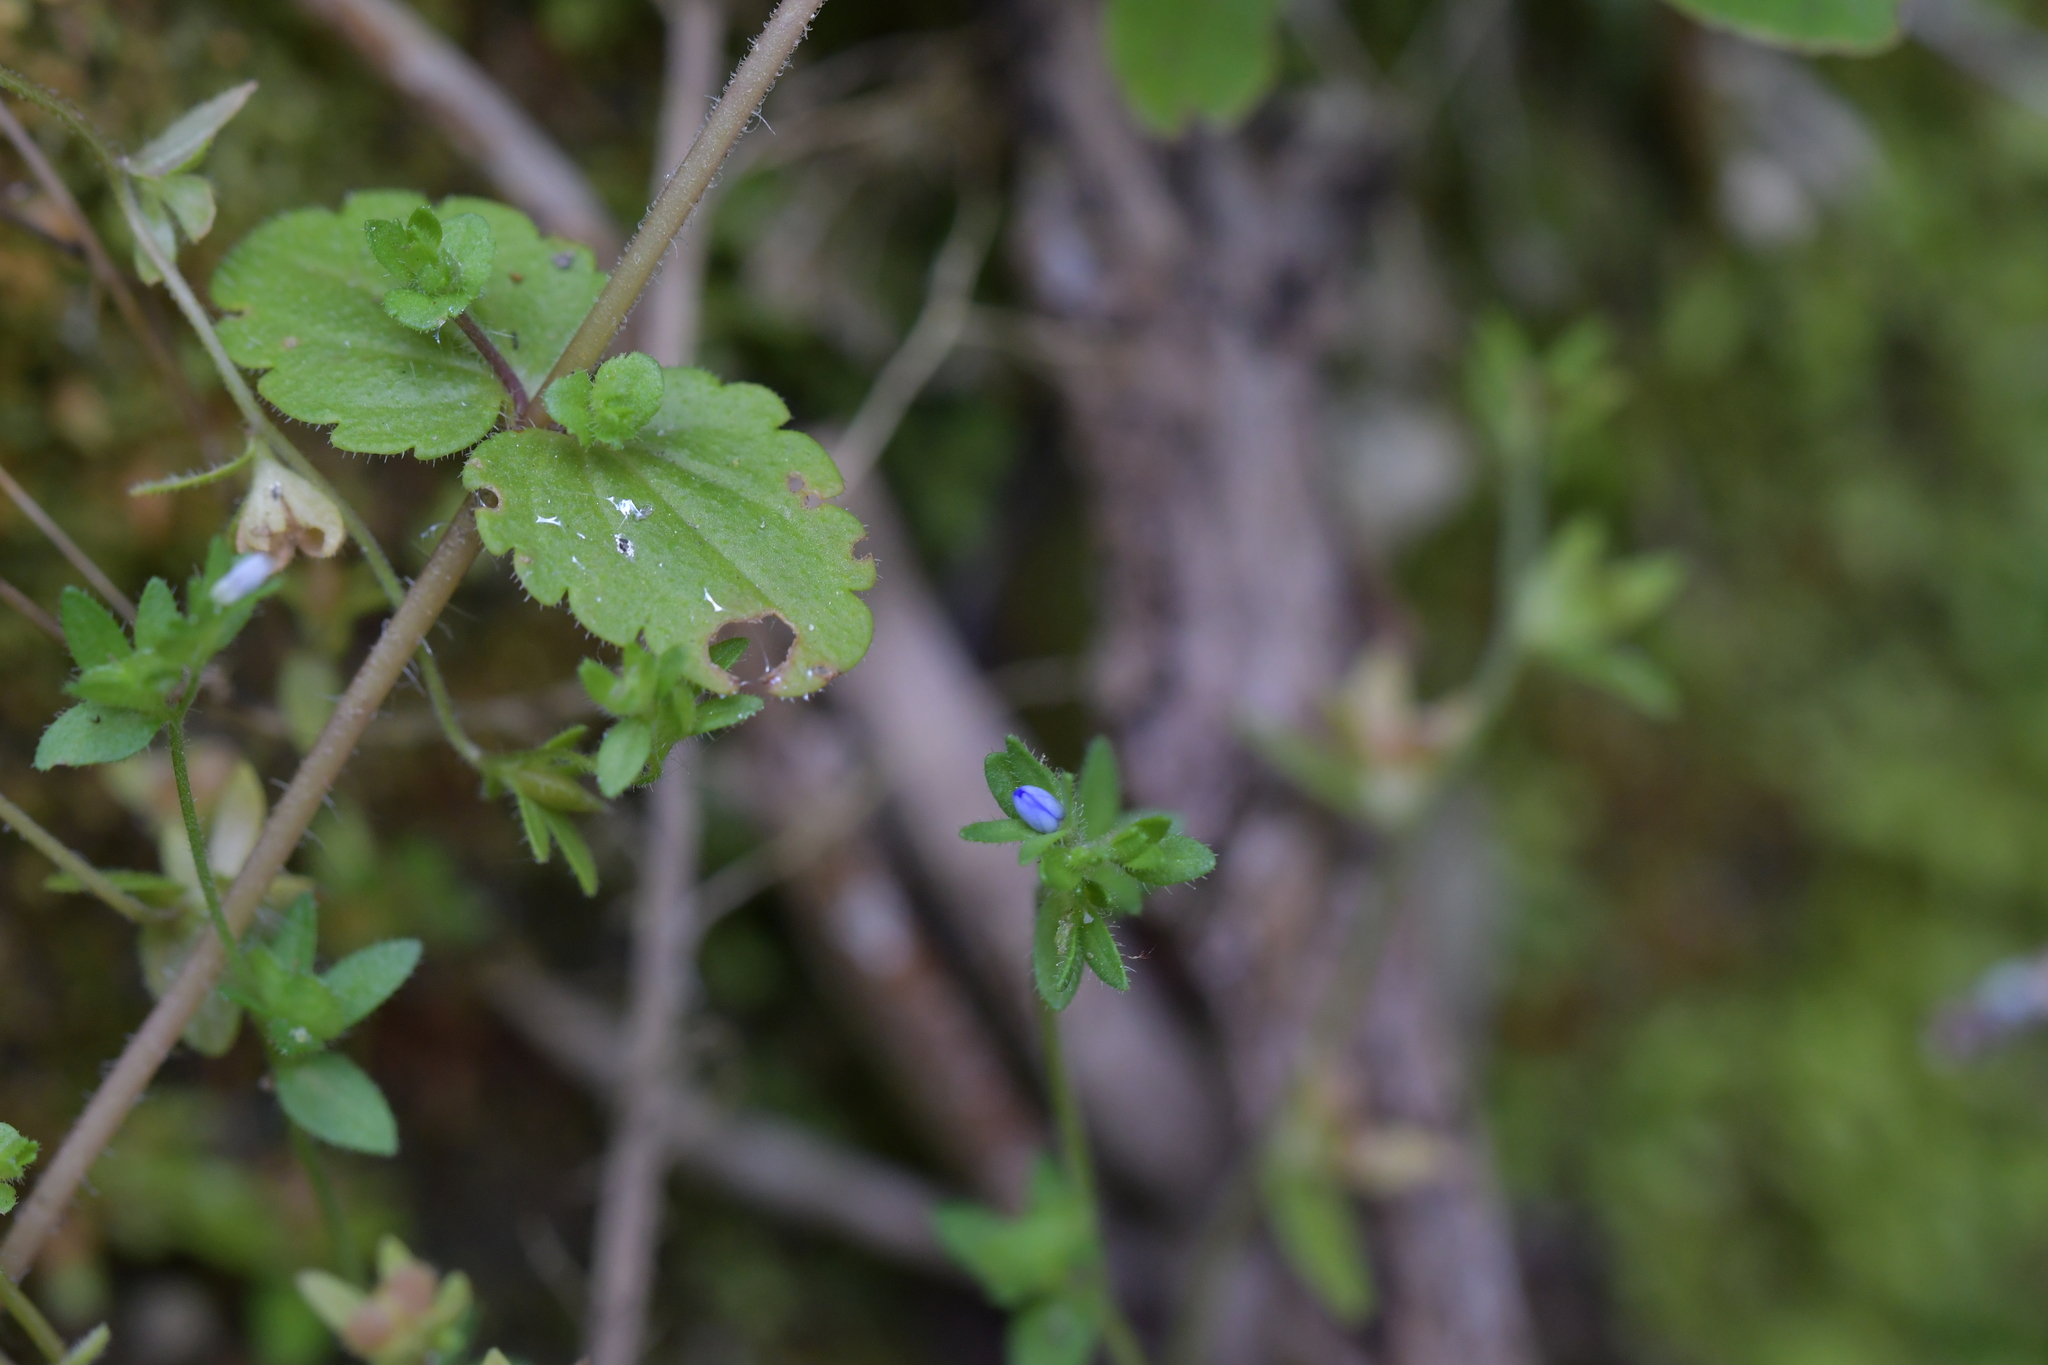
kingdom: Plantae
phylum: Tracheophyta
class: Magnoliopsida
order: Lamiales
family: Plantaginaceae
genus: Veronica
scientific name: Veronica arvensis
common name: Corn speedwell
